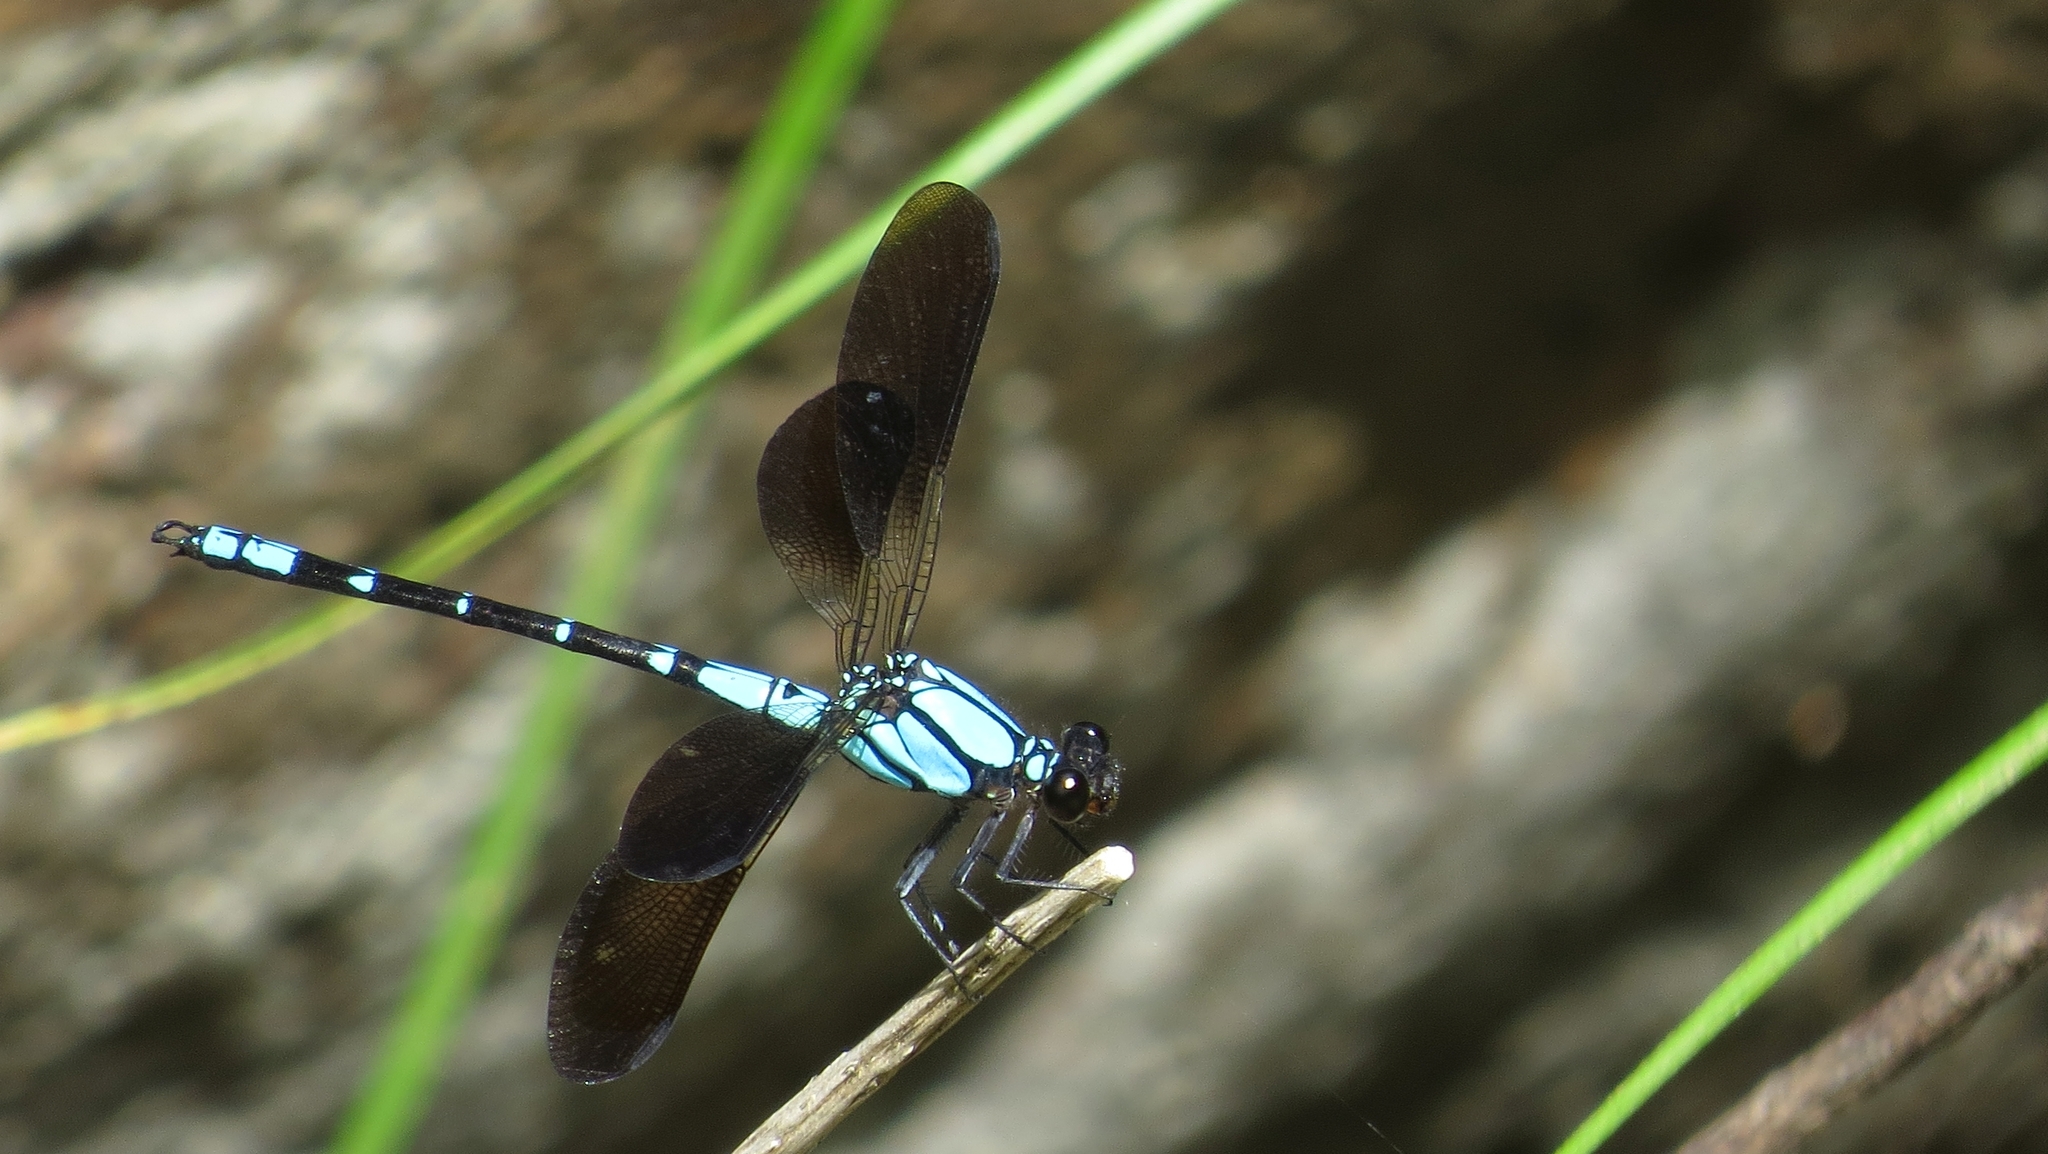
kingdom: Animalia
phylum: Arthropoda
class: Insecta
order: Odonata
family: Lestoideidae
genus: Diphlebia
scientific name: Diphlebia coerulescens
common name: Sapphire rockmaster
